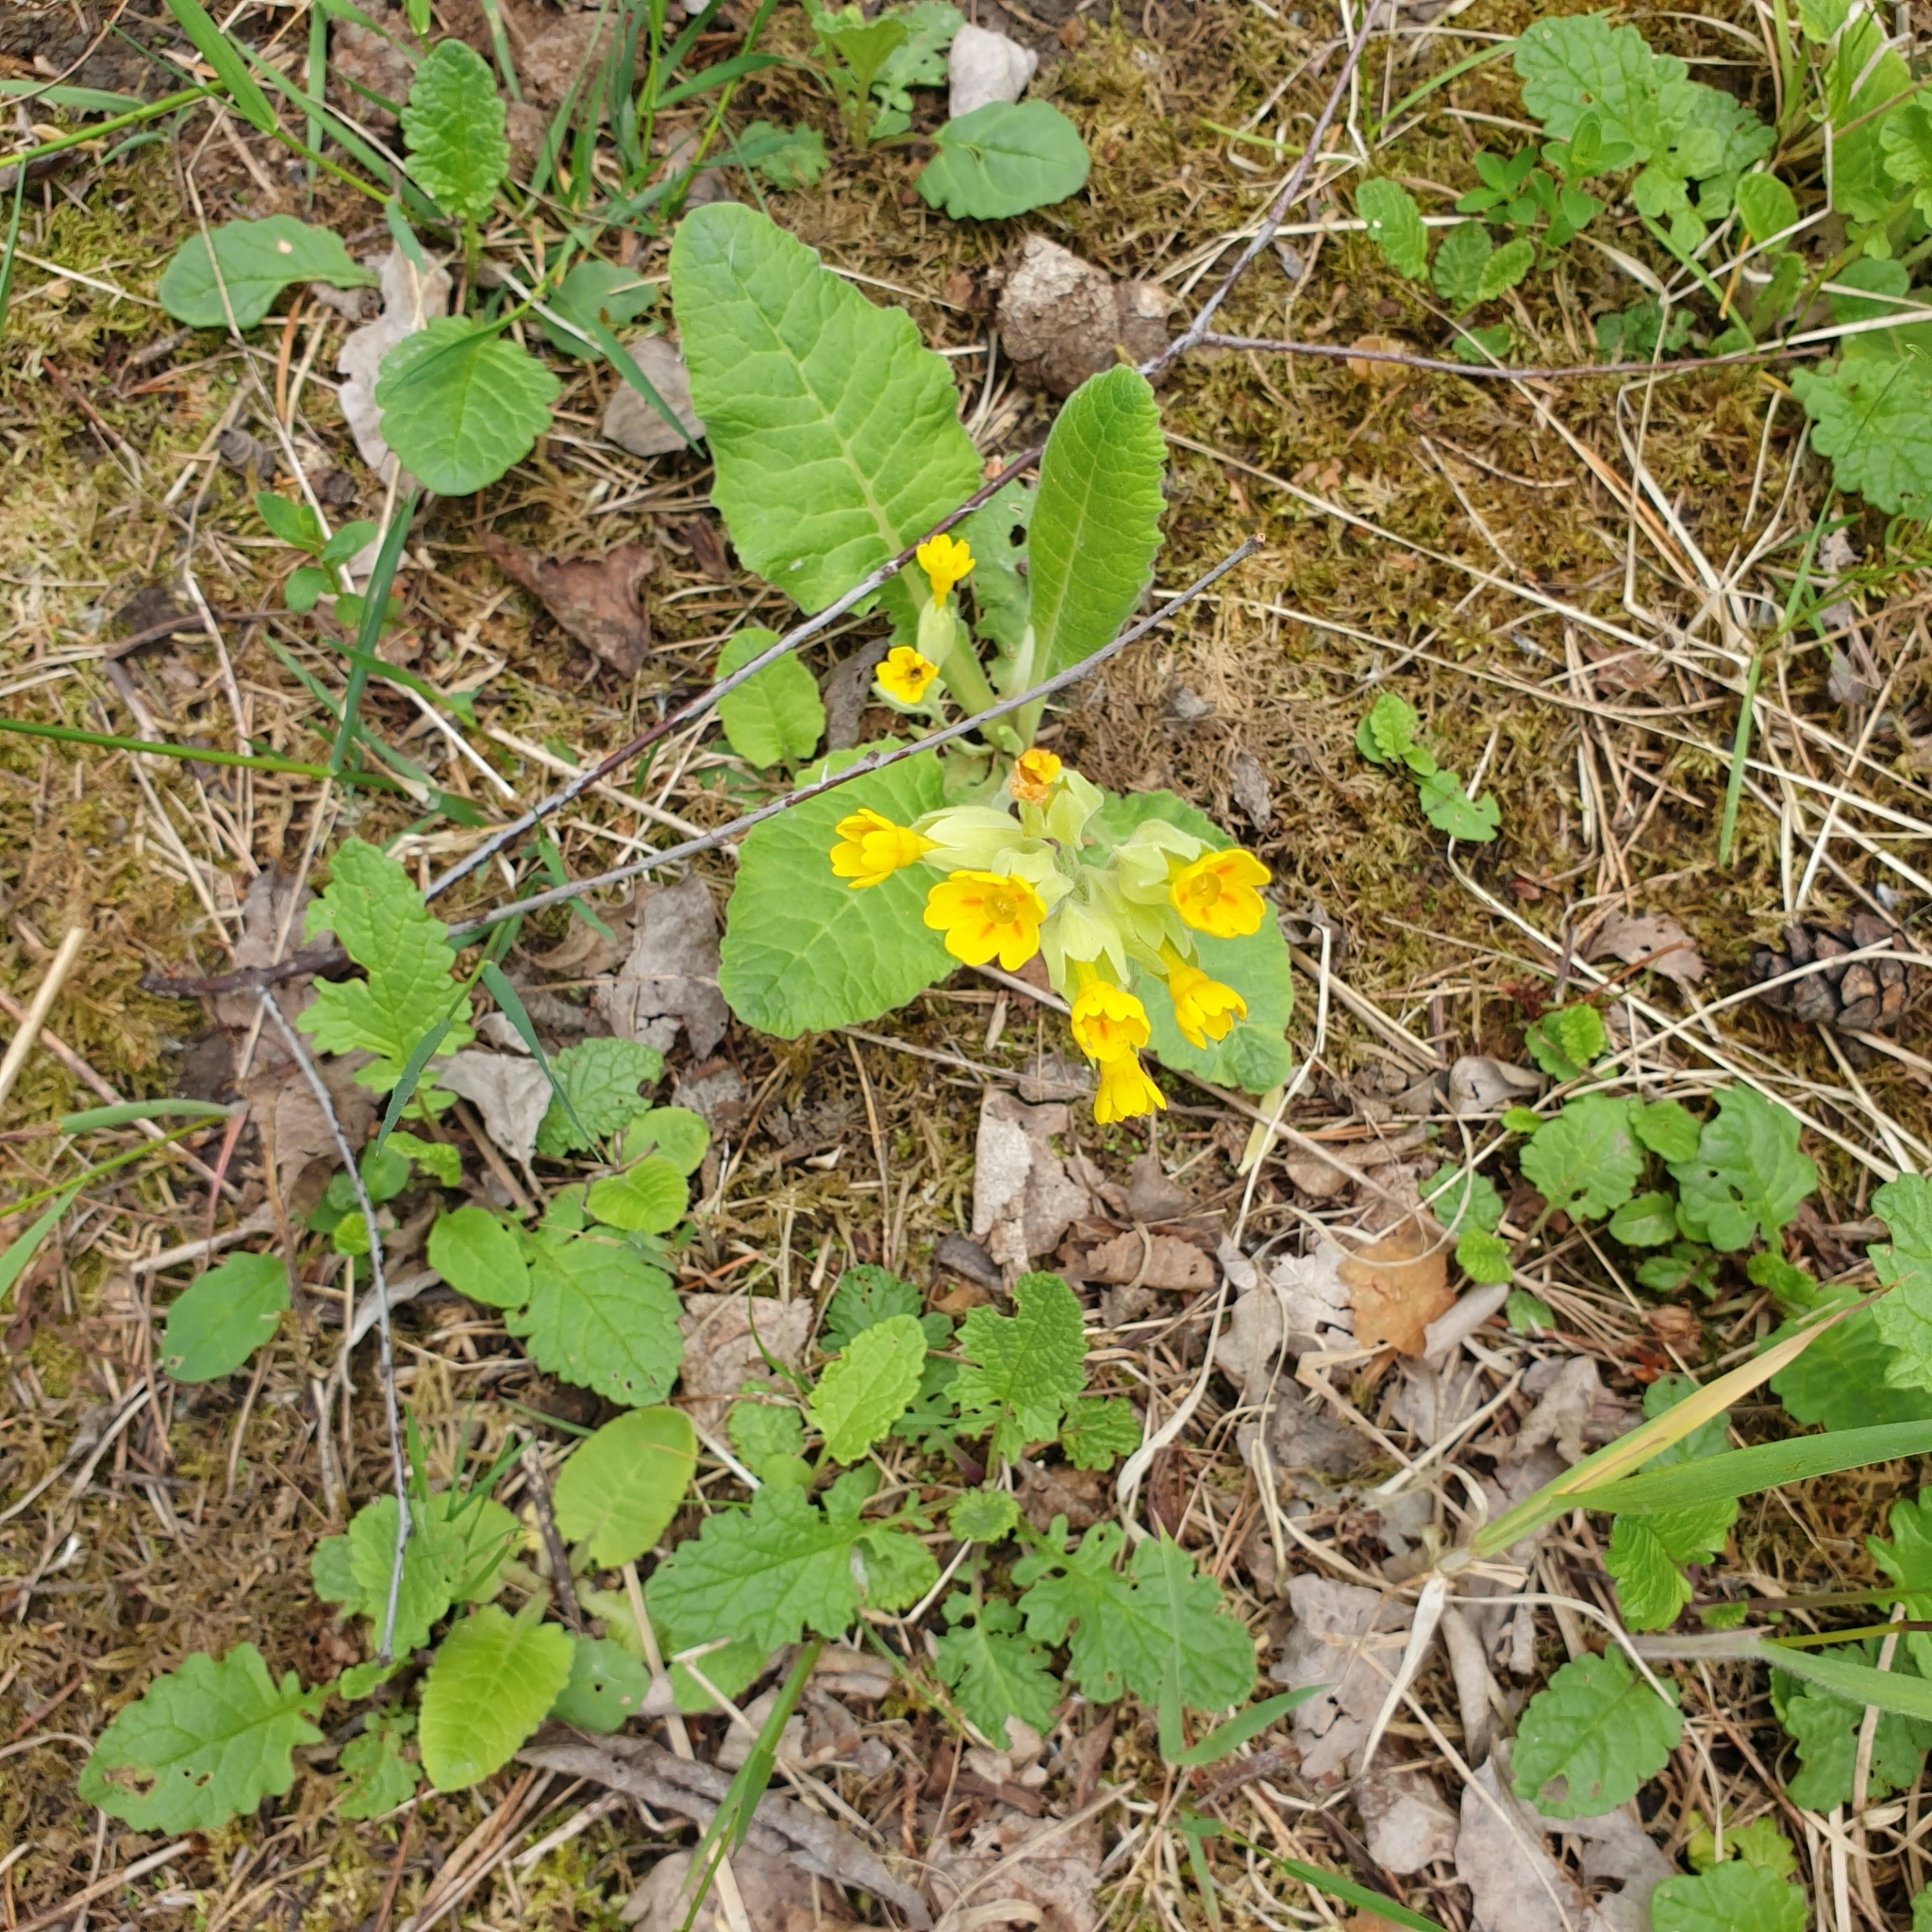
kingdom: Plantae
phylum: Tracheophyta
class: Magnoliopsida
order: Ericales
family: Primulaceae
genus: Primula
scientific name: Primula veris
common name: Cowslip
